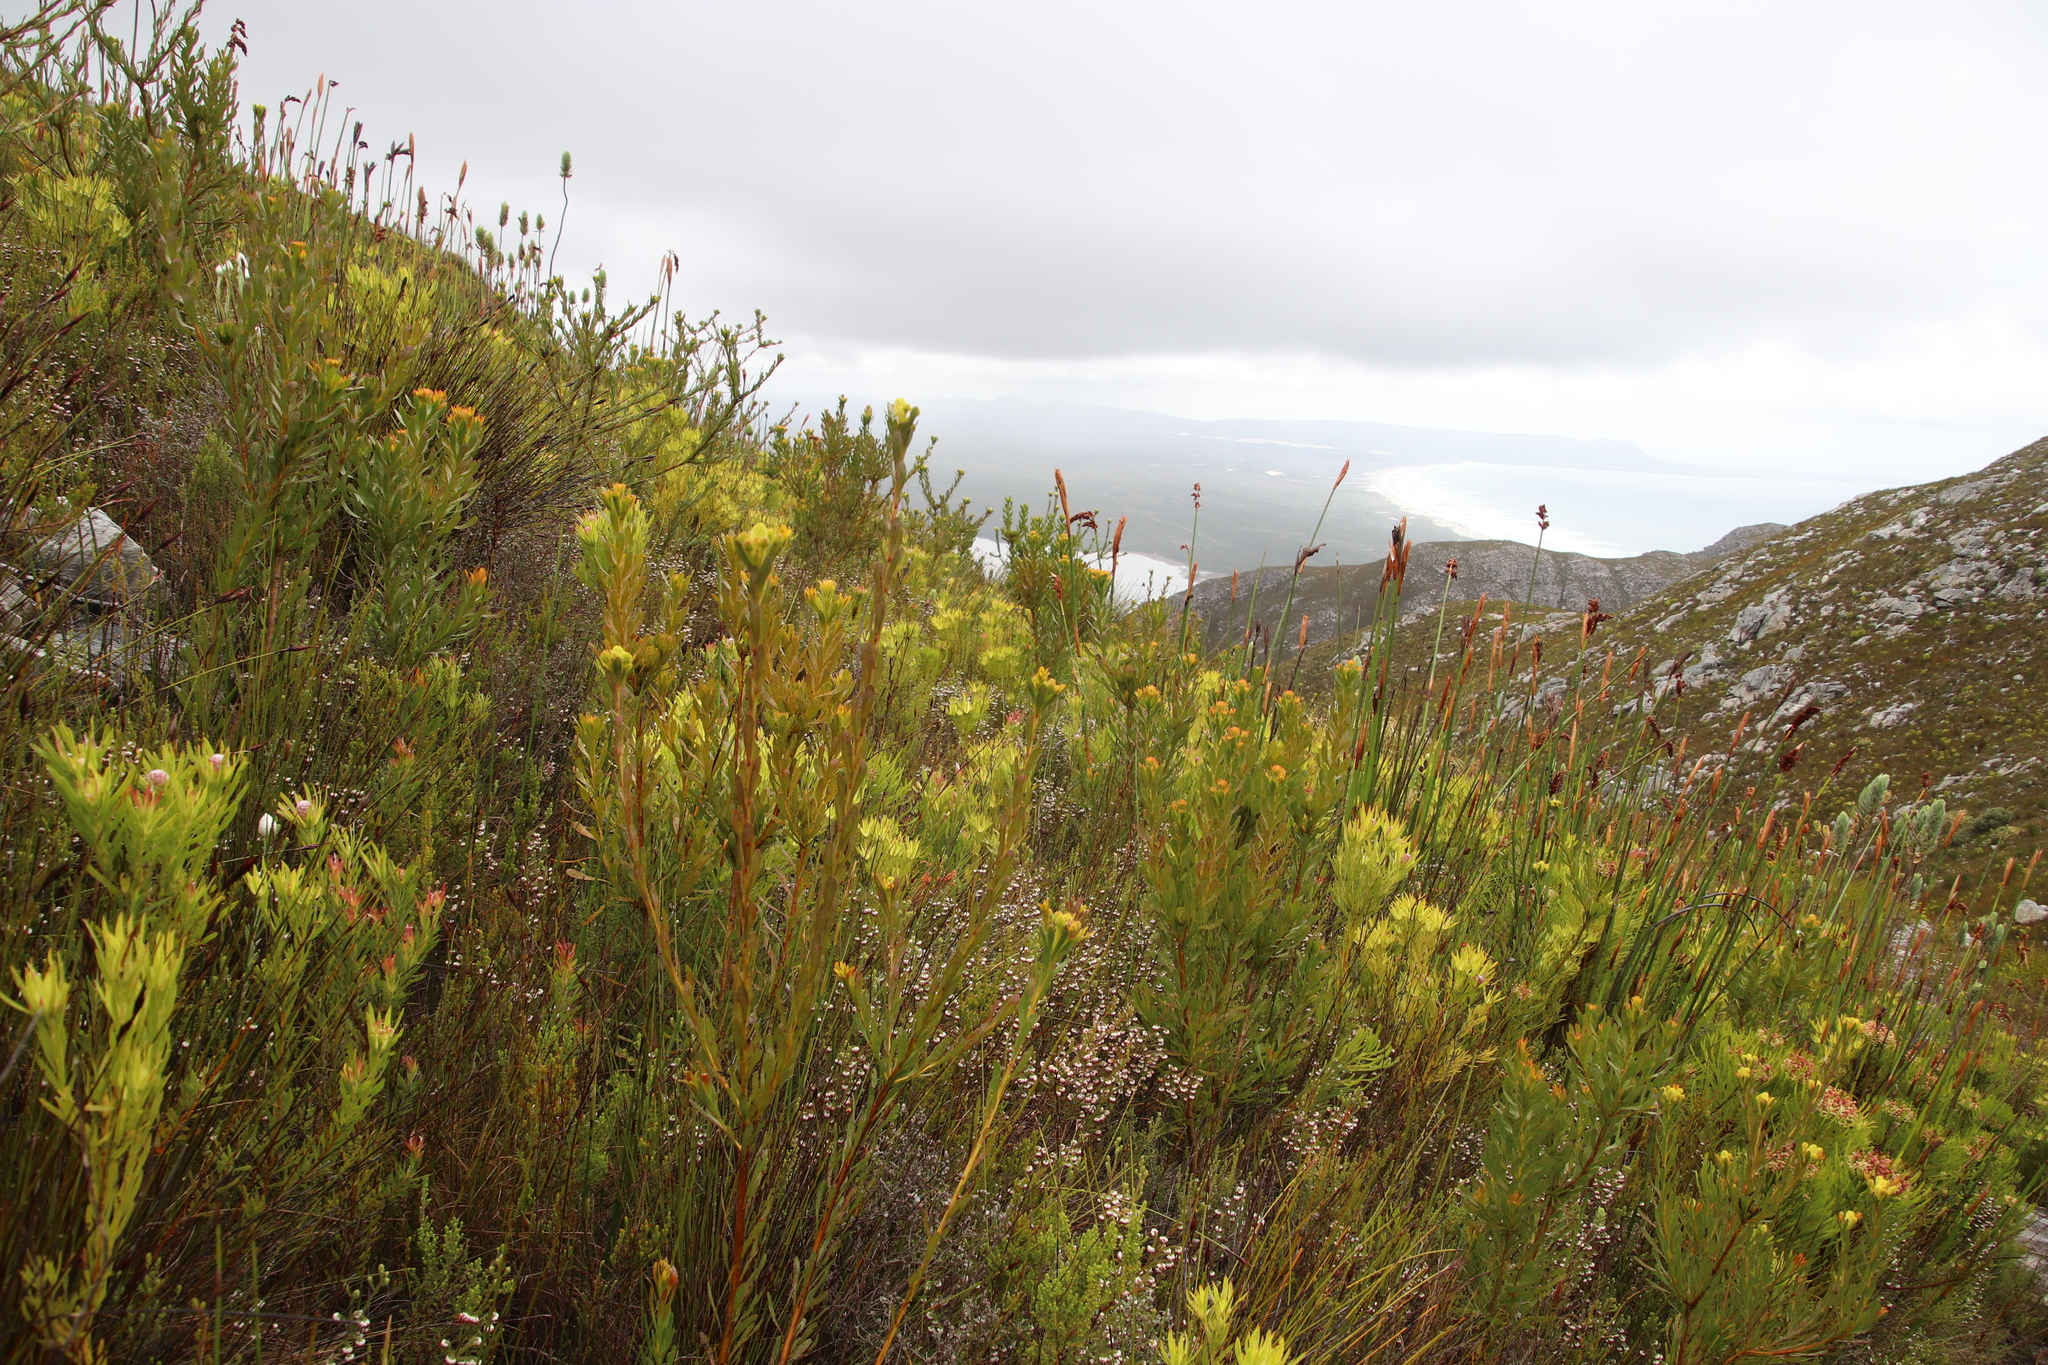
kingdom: Plantae
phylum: Tracheophyta
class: Magnoliopsida
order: Proteales
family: Proteaceae
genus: Aulax
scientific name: Aulax umbellata
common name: Broad-leaf featherbush
